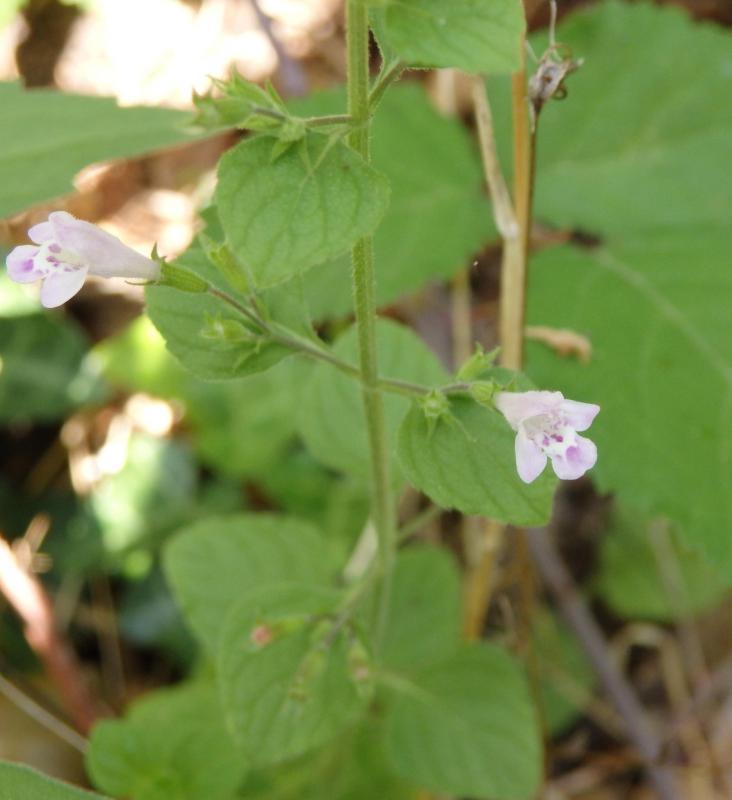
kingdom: Plantae
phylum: Tracheophyta
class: Magnoliopsida
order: Lamiales
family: Lamiaceae
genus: Clinopodium
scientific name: Clinopodium menthifolium
